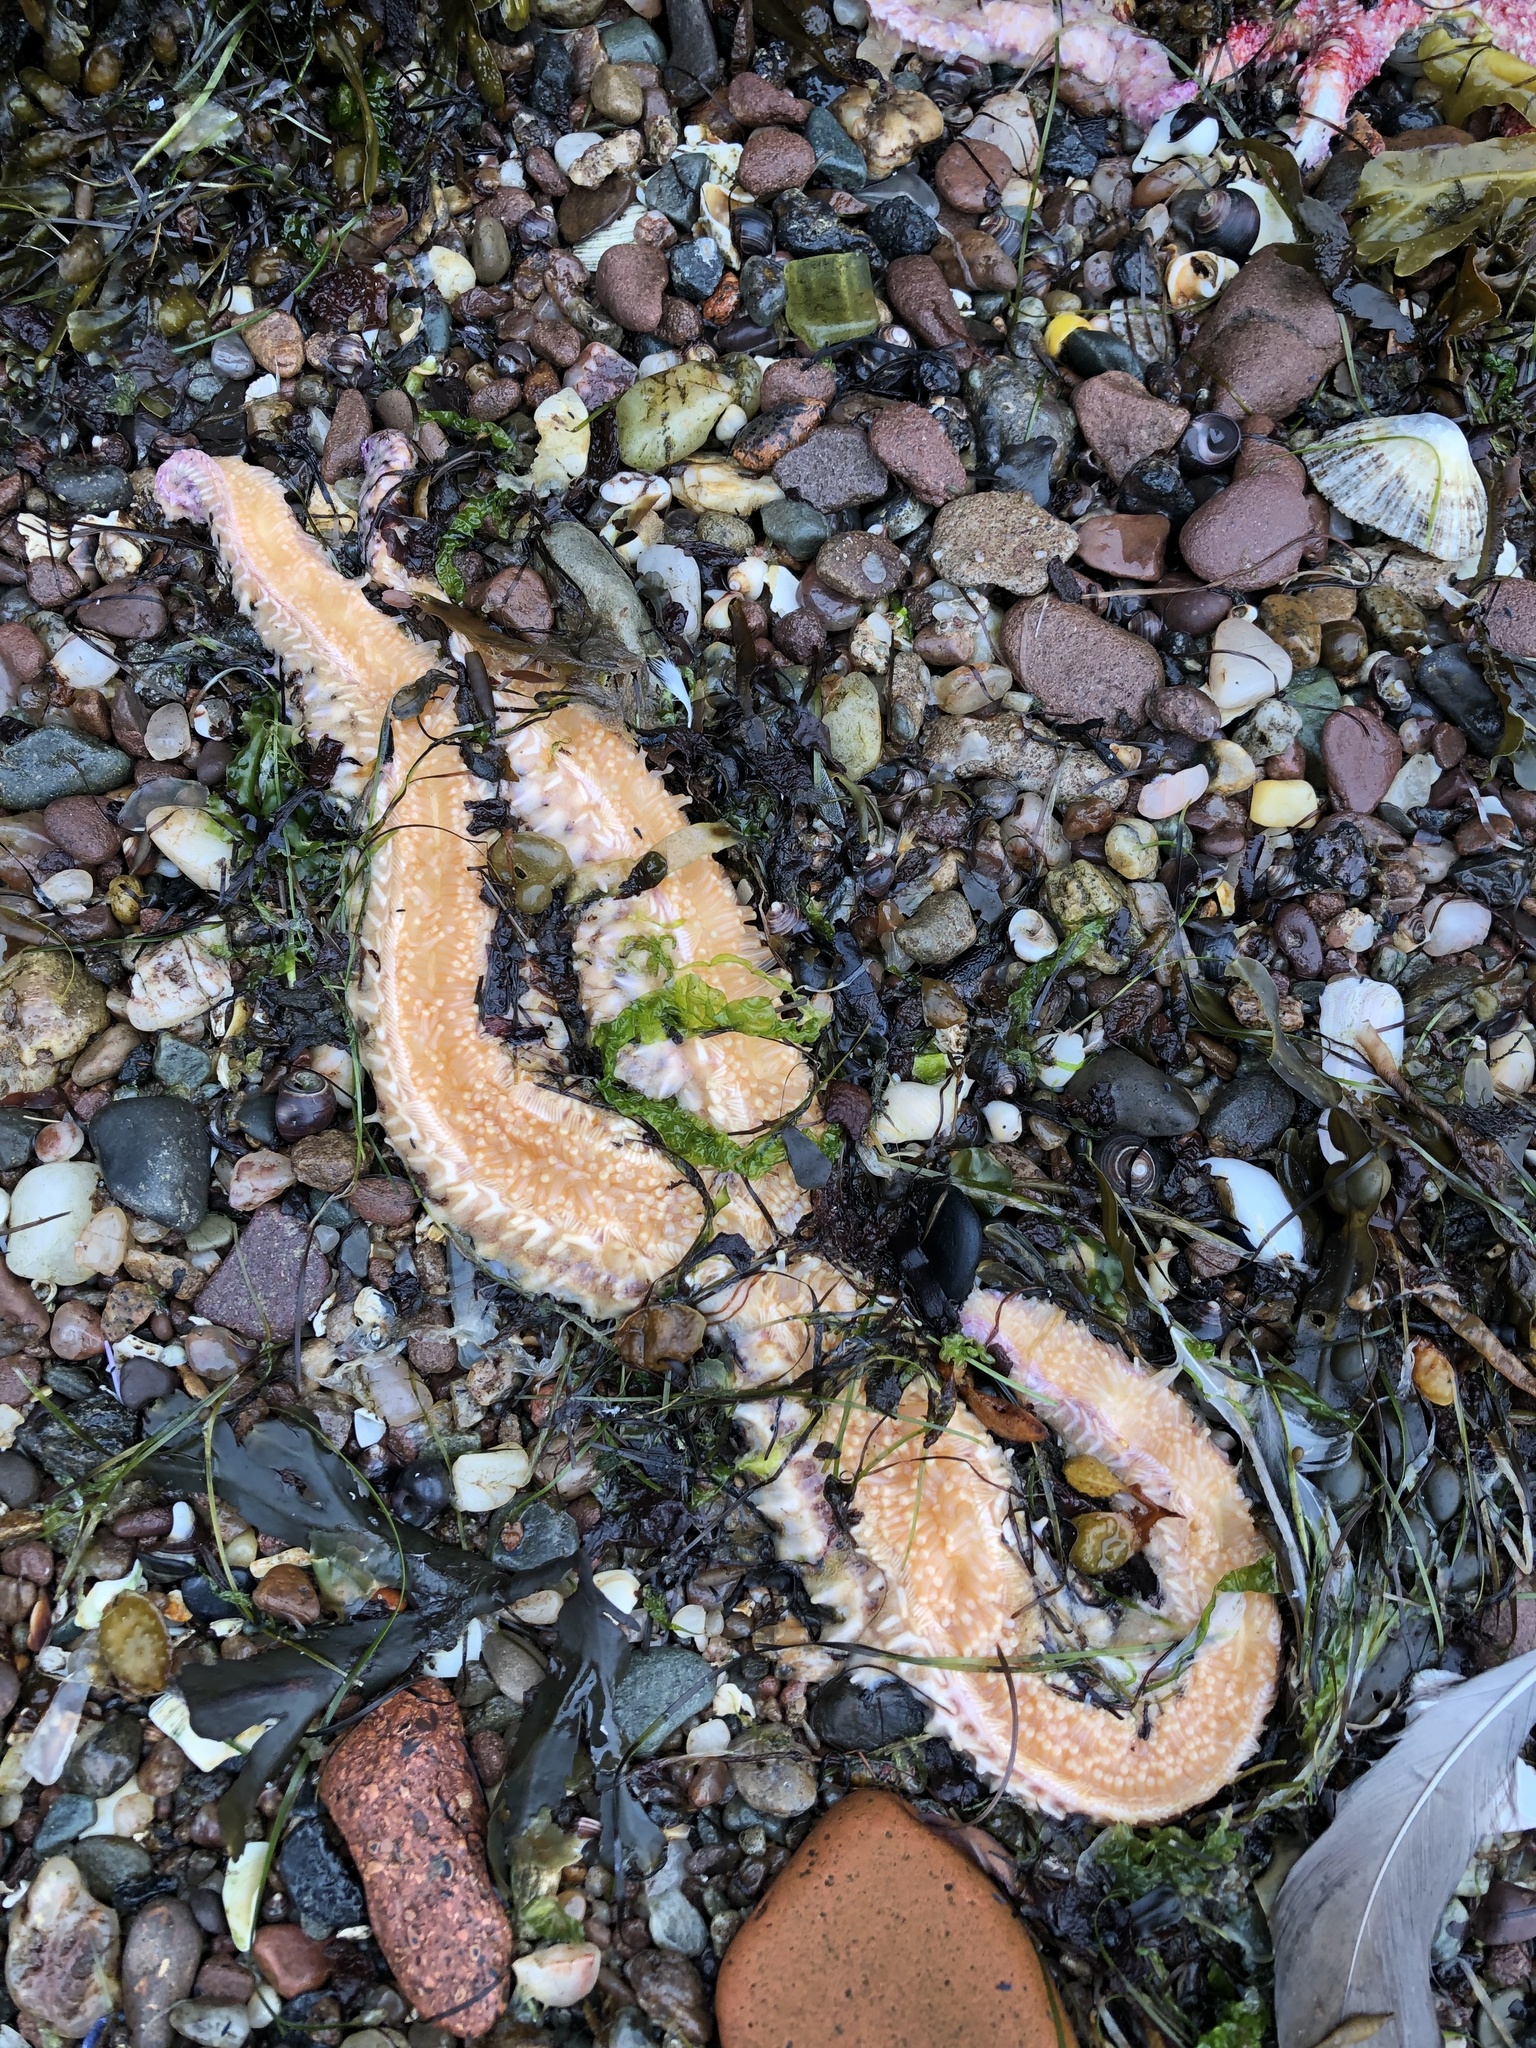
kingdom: Animalia
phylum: Echinodermata
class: Asteroidea
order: Forcipulatida
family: Asteriidae
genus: Marthasterias
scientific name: Marthasterias glacialis
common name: Spiny starfish
